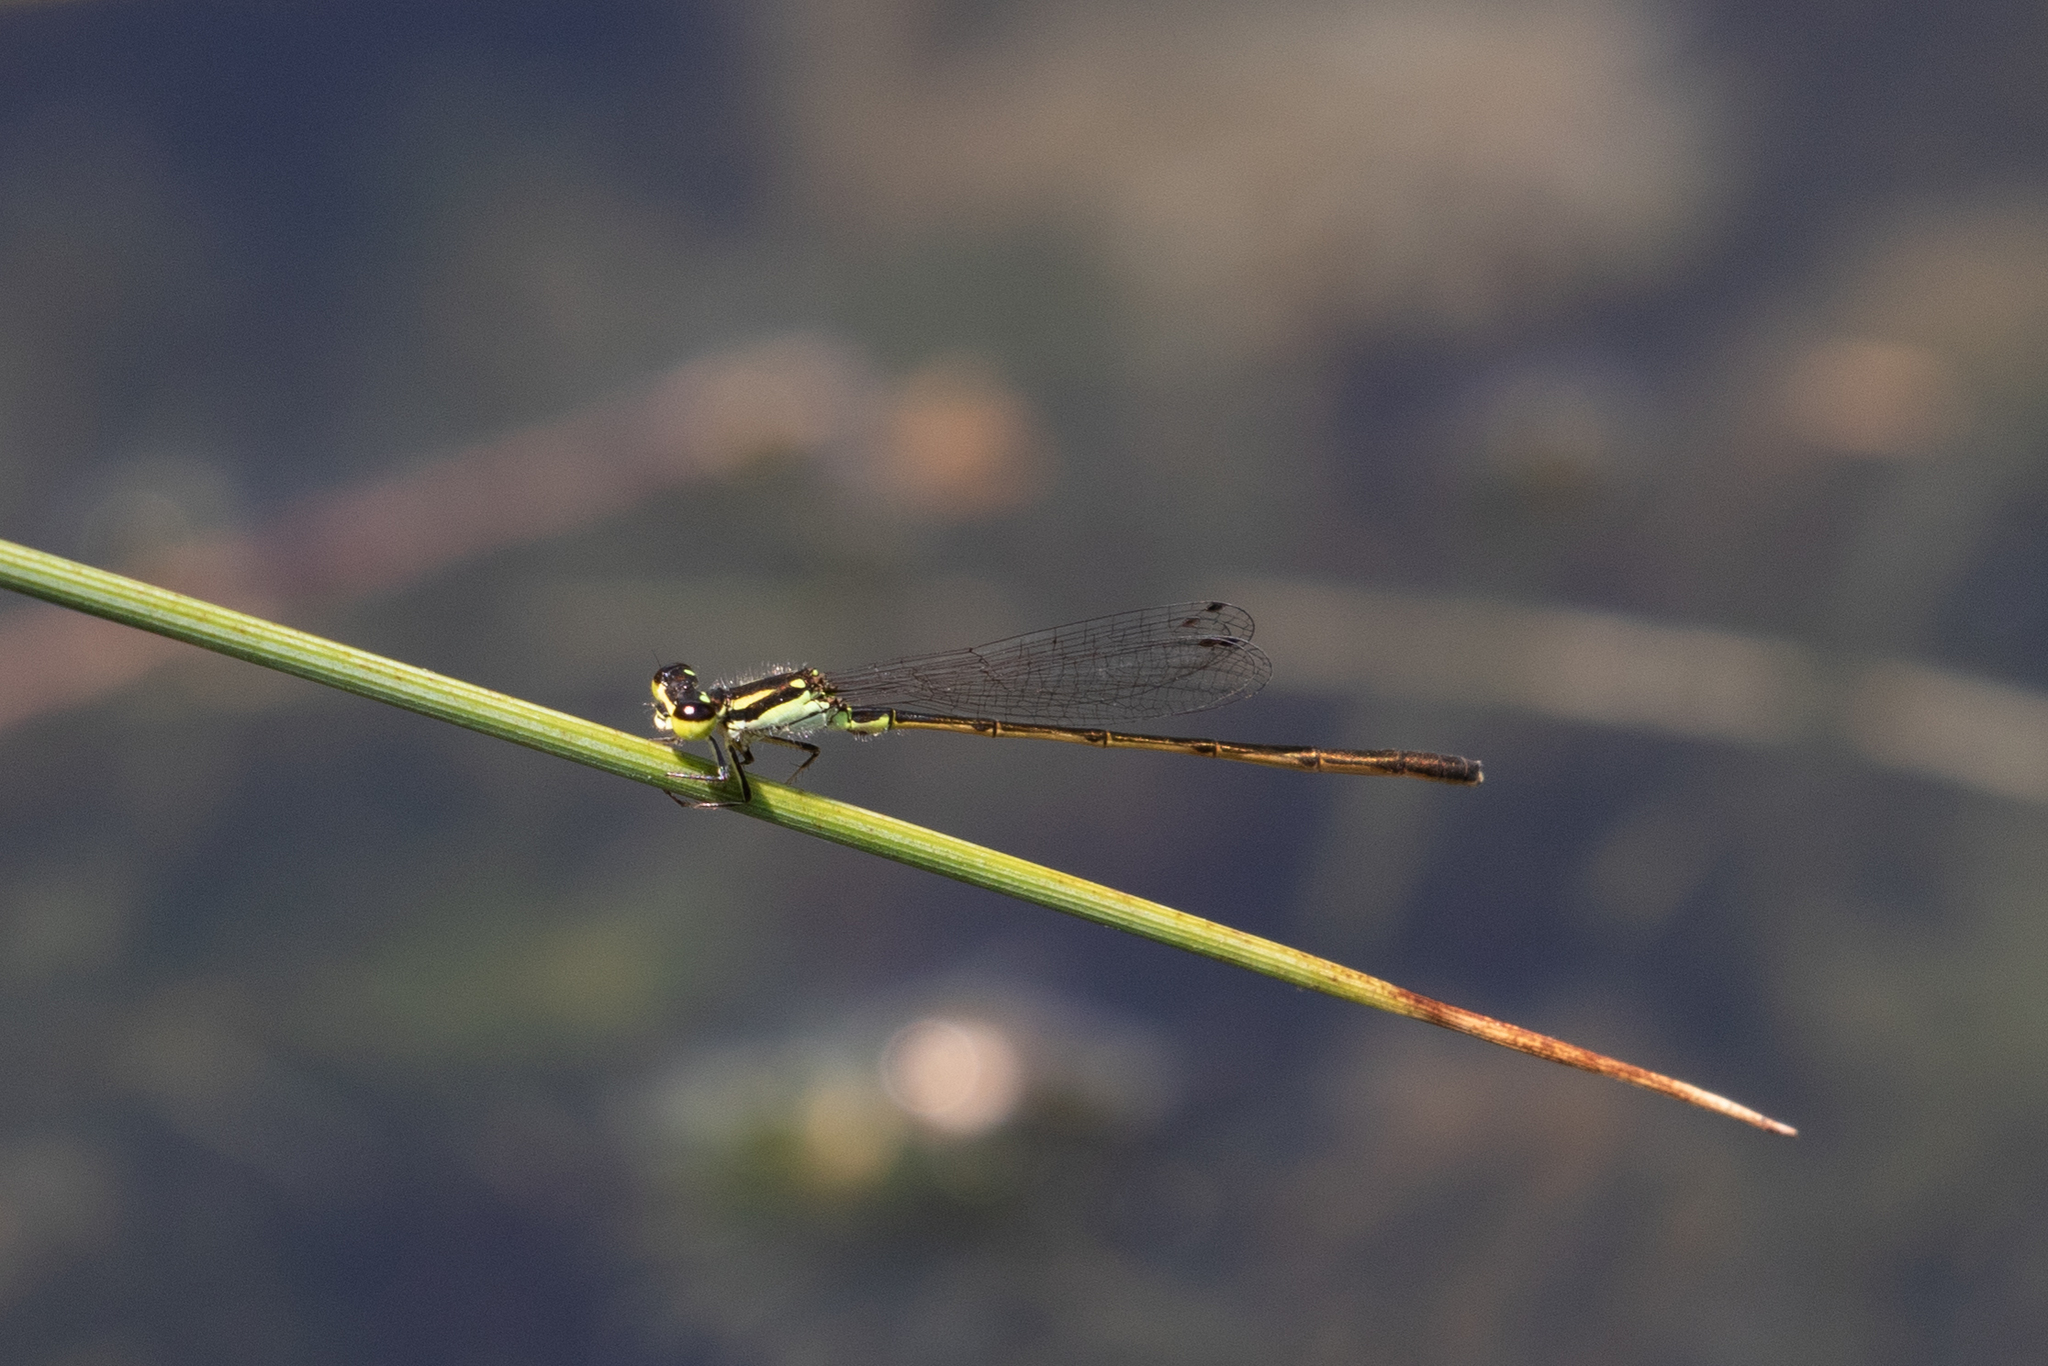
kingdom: Animalia
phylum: Arthropoda
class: Insecta
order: Odonata
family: Coenagrionidae
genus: Ischnura
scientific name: Ischnura posita
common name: Fragile forktail
